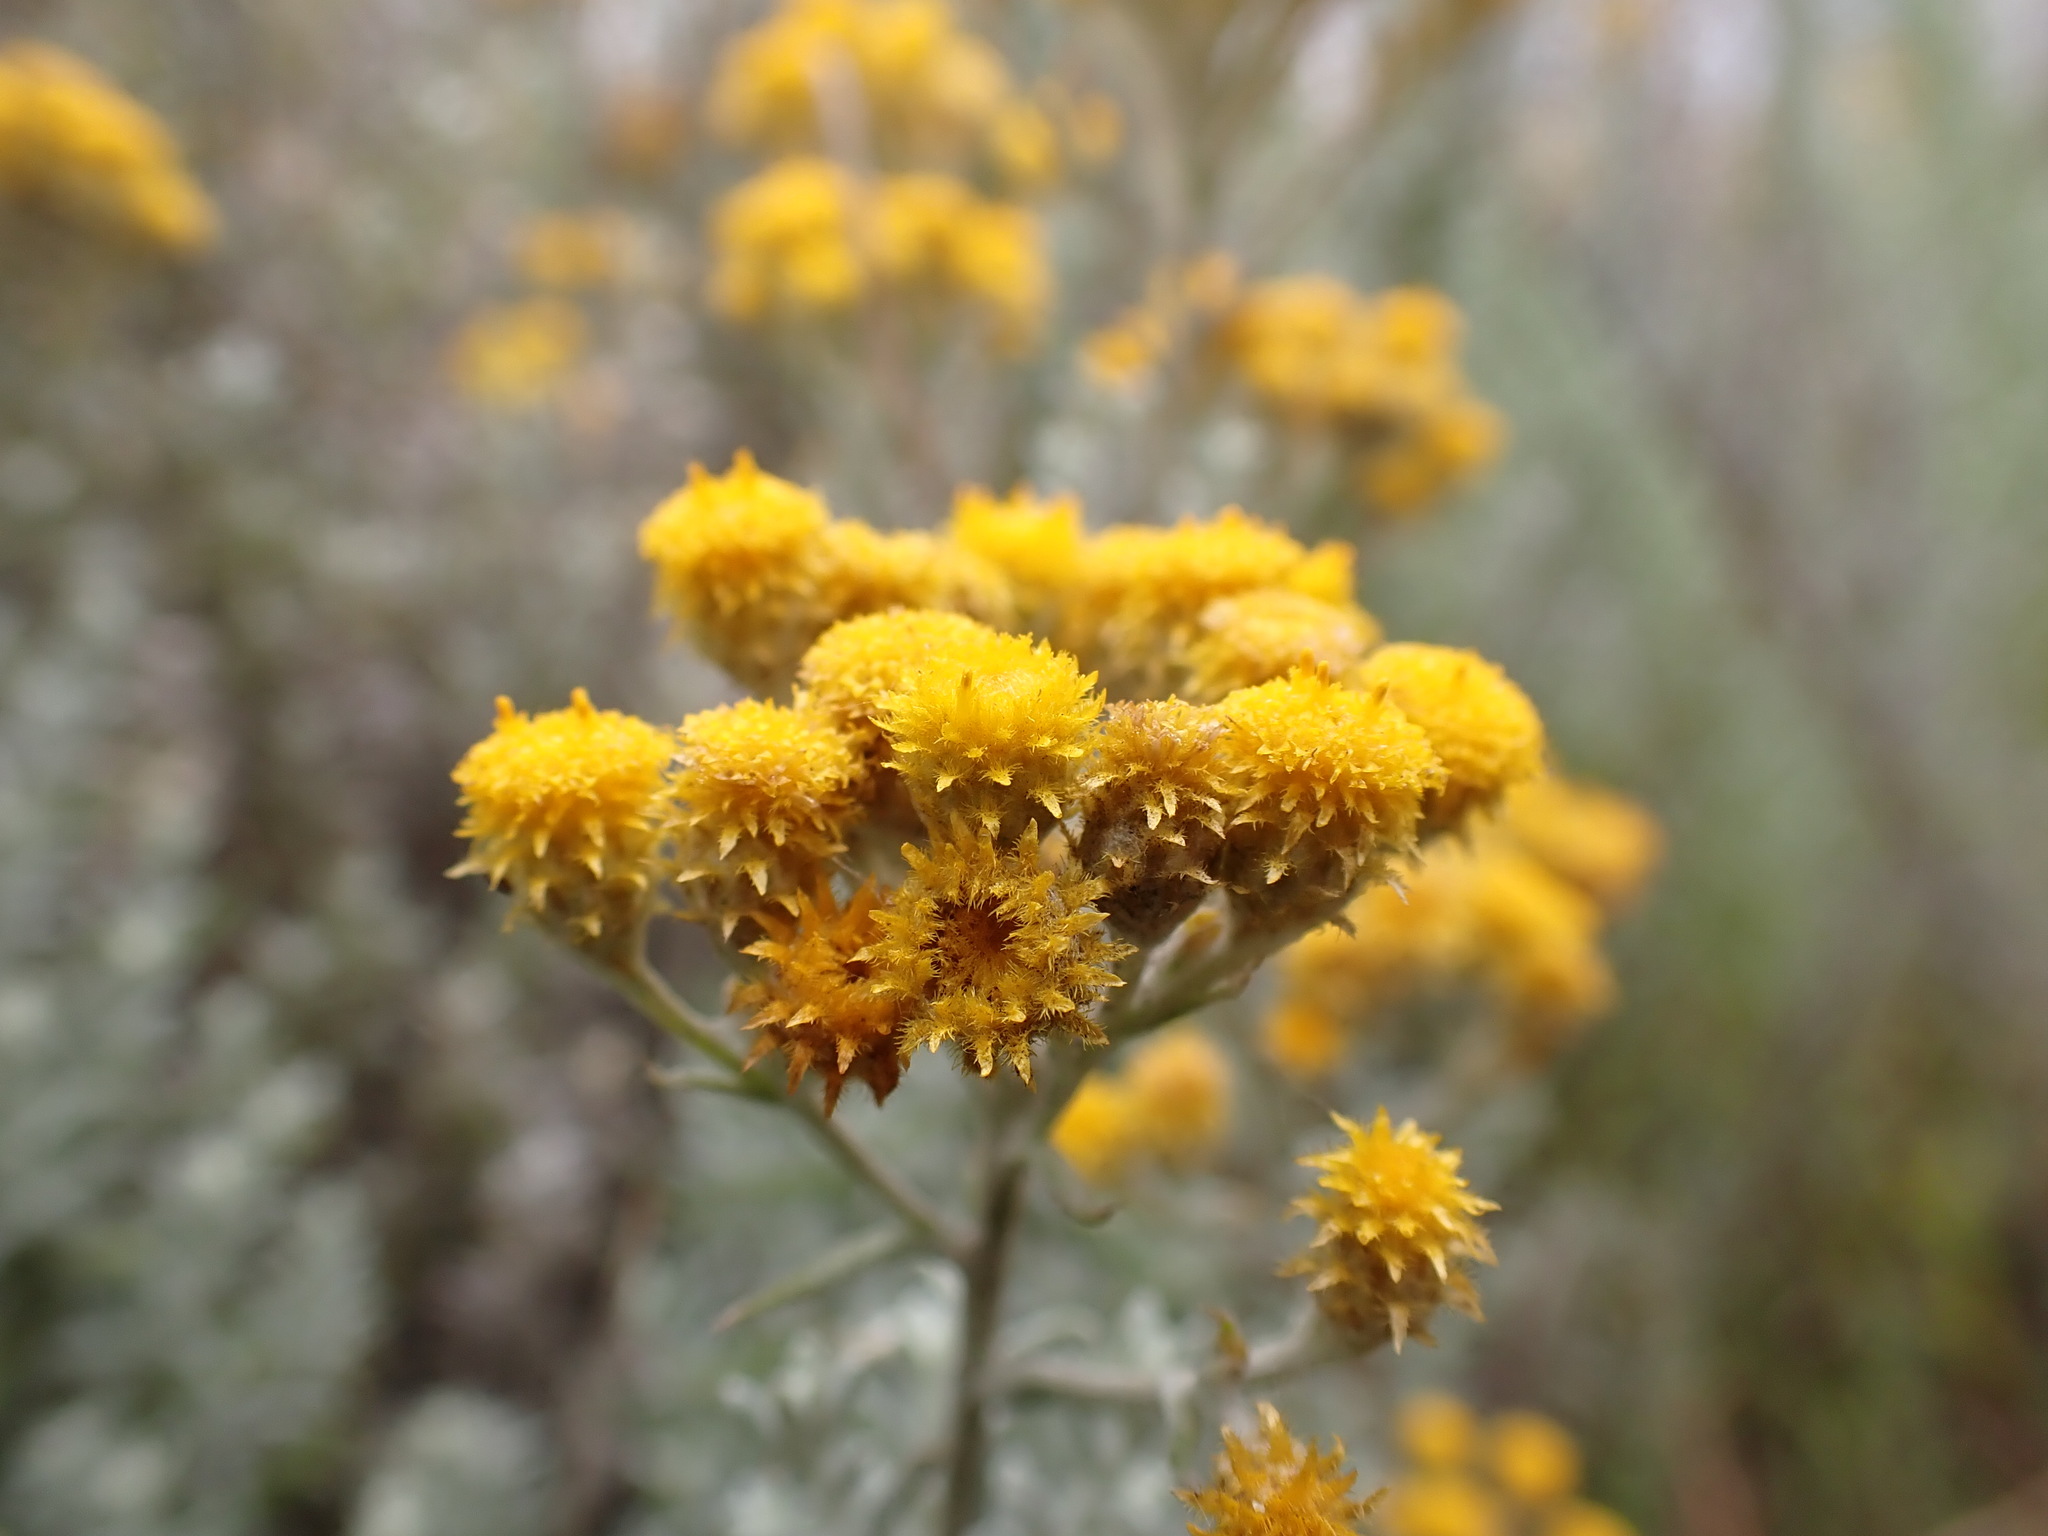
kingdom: Plantae
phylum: Tracheophyta
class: Magnoliopsida
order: Asterales
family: Asteraceae
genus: Chrysocephalum
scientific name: Chrysocephalum semipapposum
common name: Clustered everlasting
